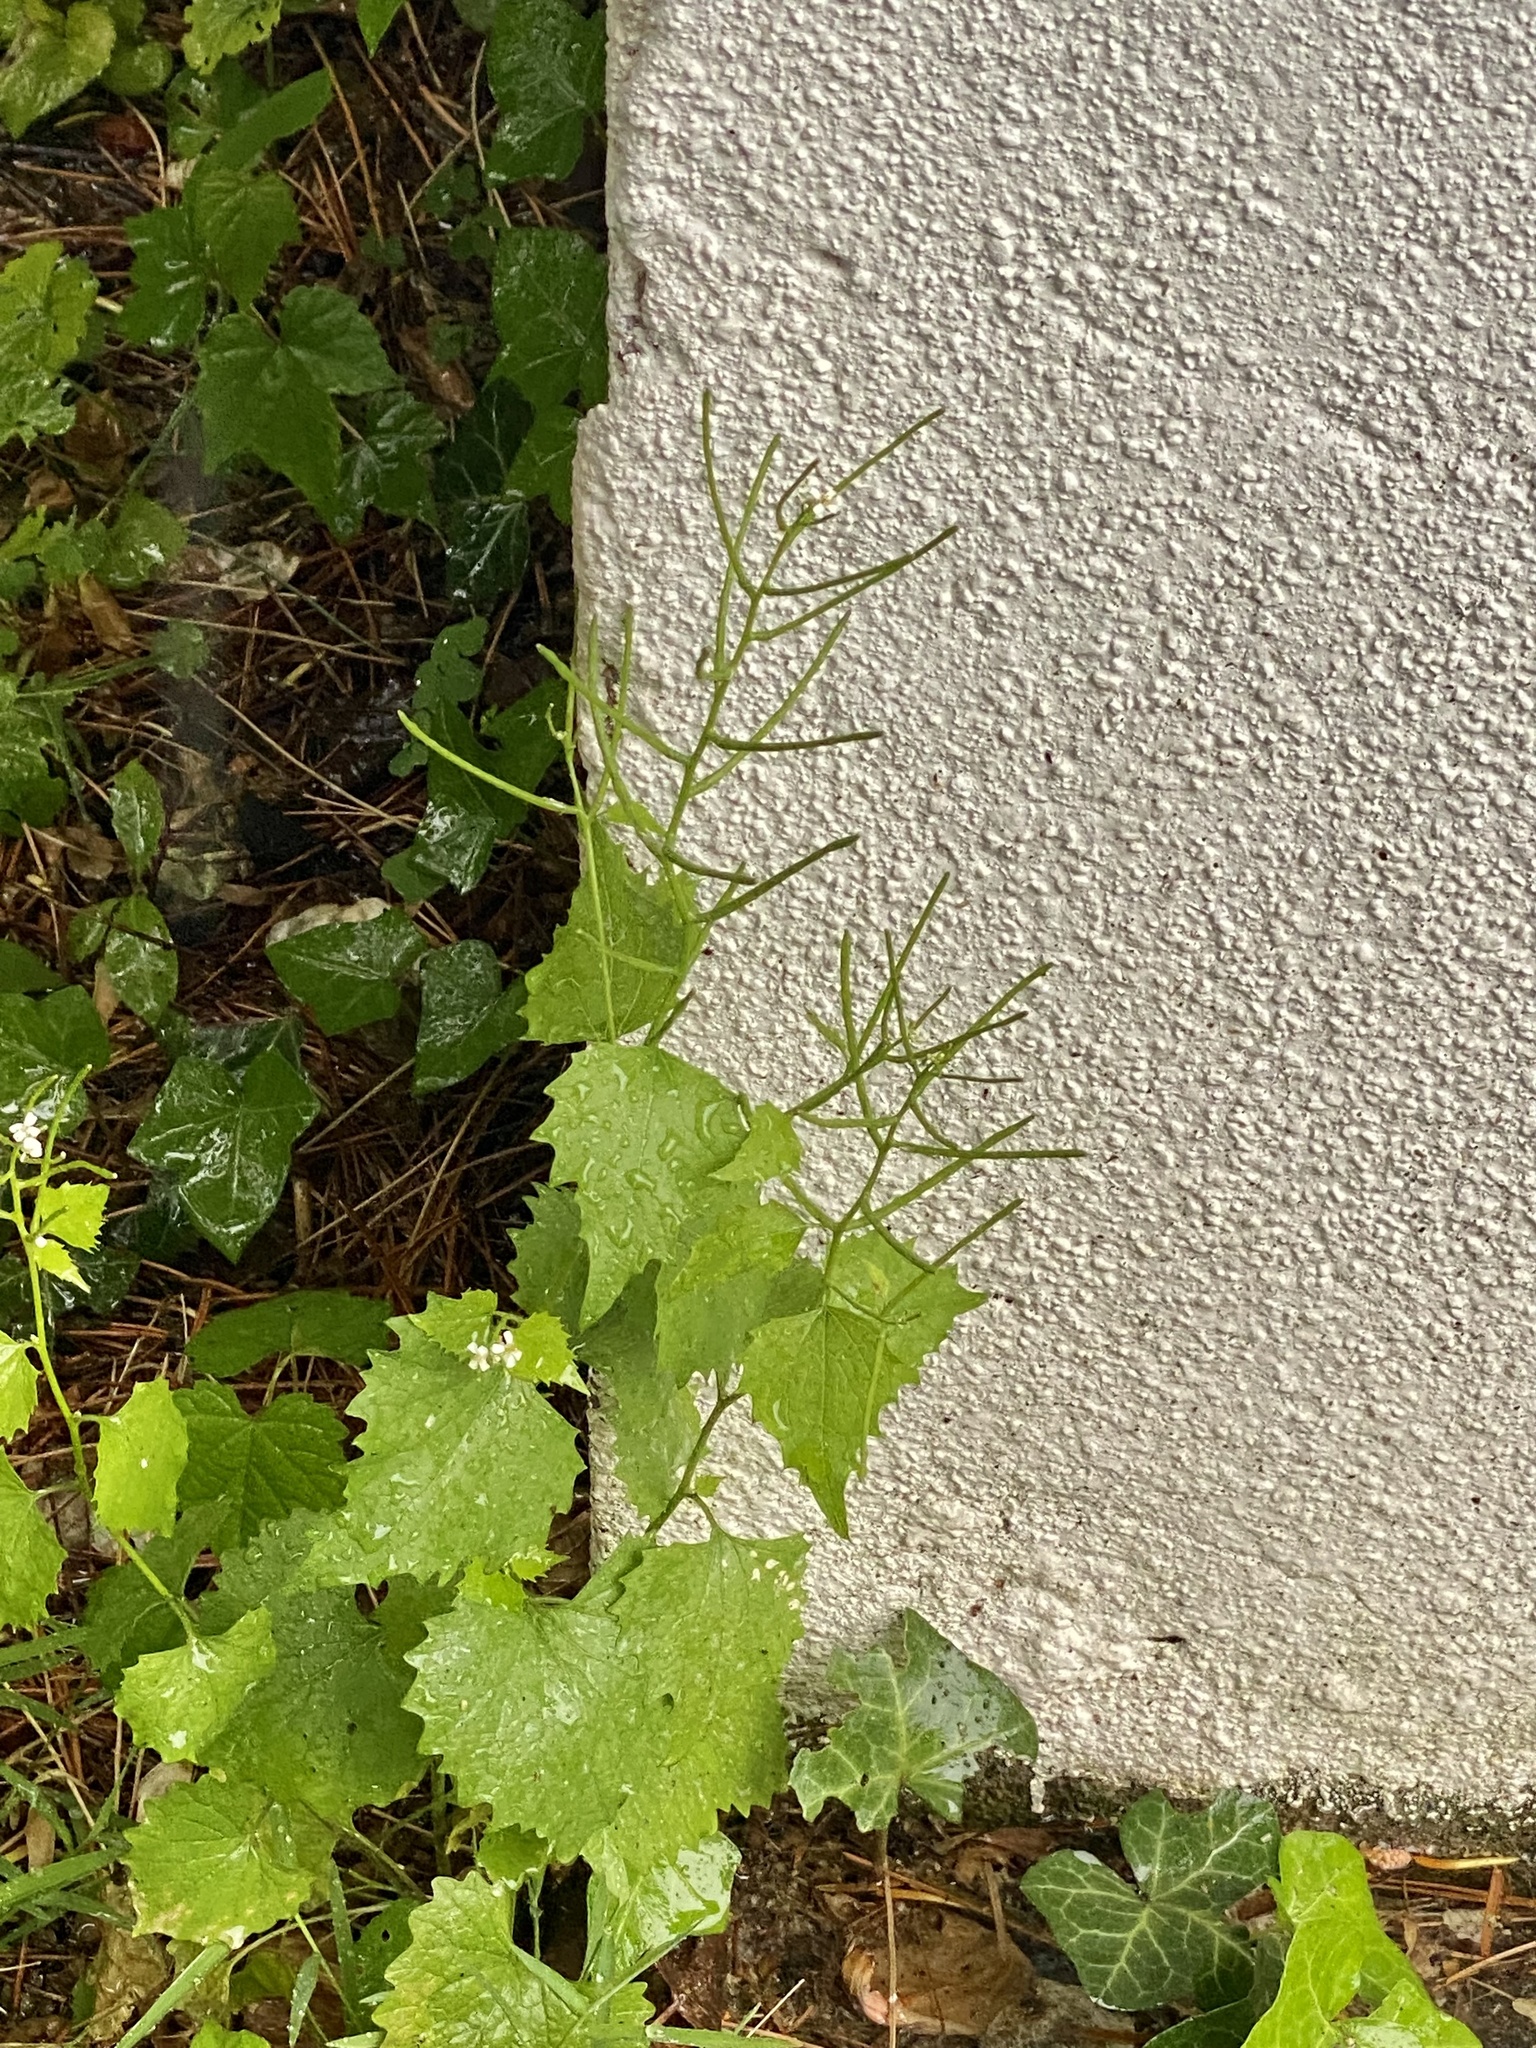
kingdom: Plantae
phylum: Tracheophyta
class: Magnoliopsida
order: Brassicales
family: Brassicaceae
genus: Alliaria
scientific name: Alliaria petiolata
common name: Garlic mustard
